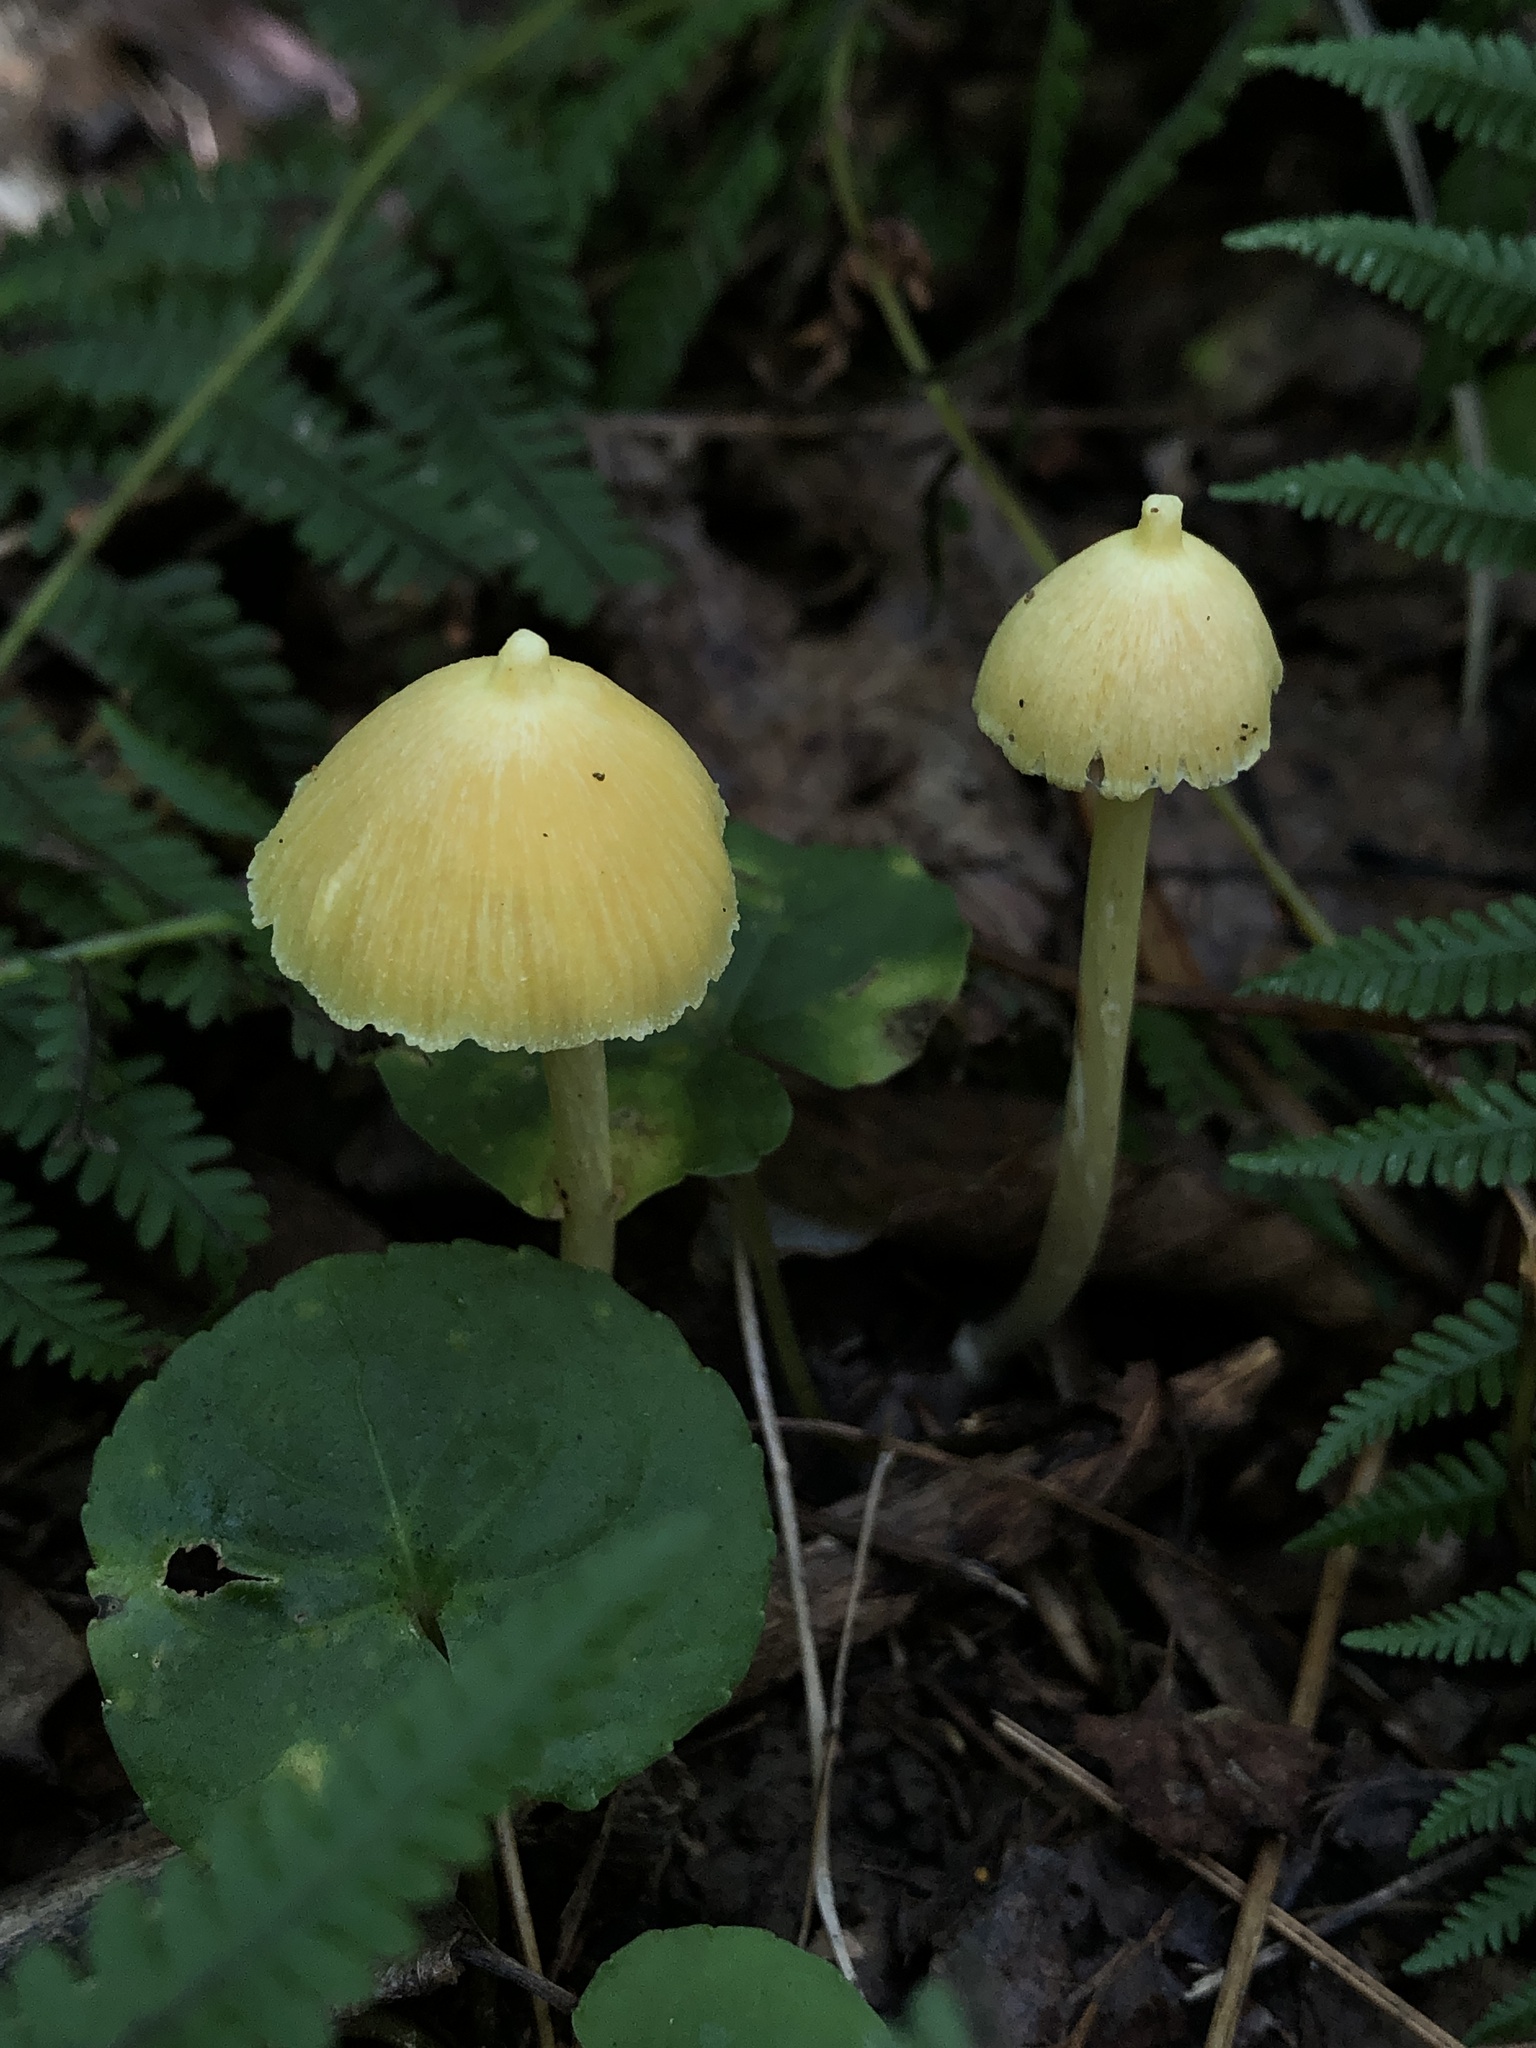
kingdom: Fungi
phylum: Basidiomycota
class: Agaricomycetes
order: Agaricales
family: Entolomataceae
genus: Entoloma
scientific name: Entoloma murrayi
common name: Yellow unicorn entoloma
